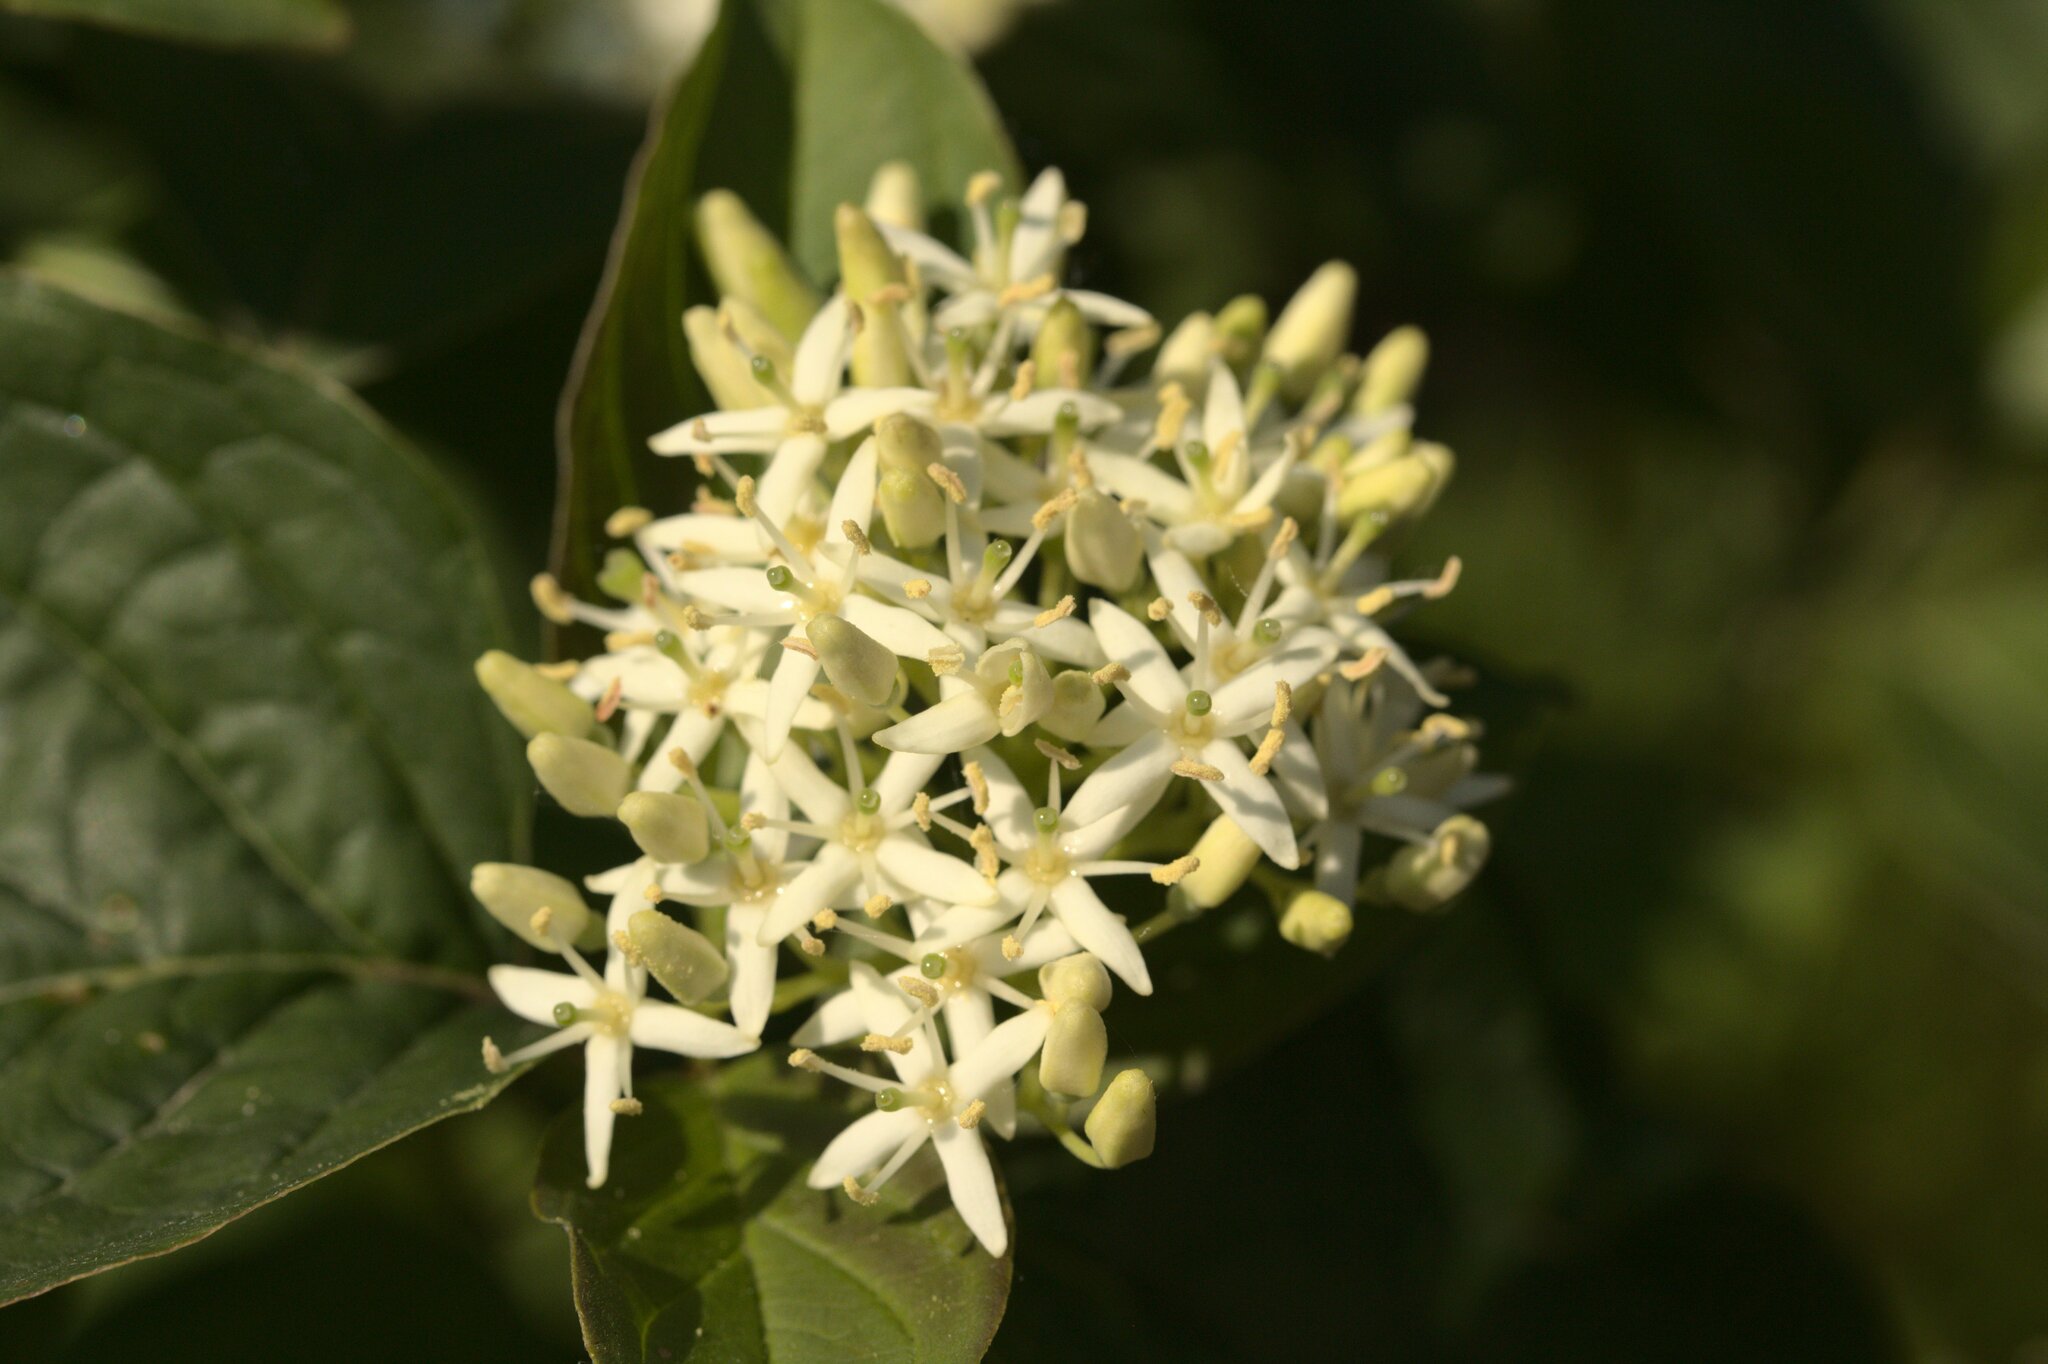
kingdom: Plantae
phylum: Tracheophyta
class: Magnoliopsida
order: Cornales
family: Cornaceae
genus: Cornus
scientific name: Cornus sanguinea
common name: Dogwood
